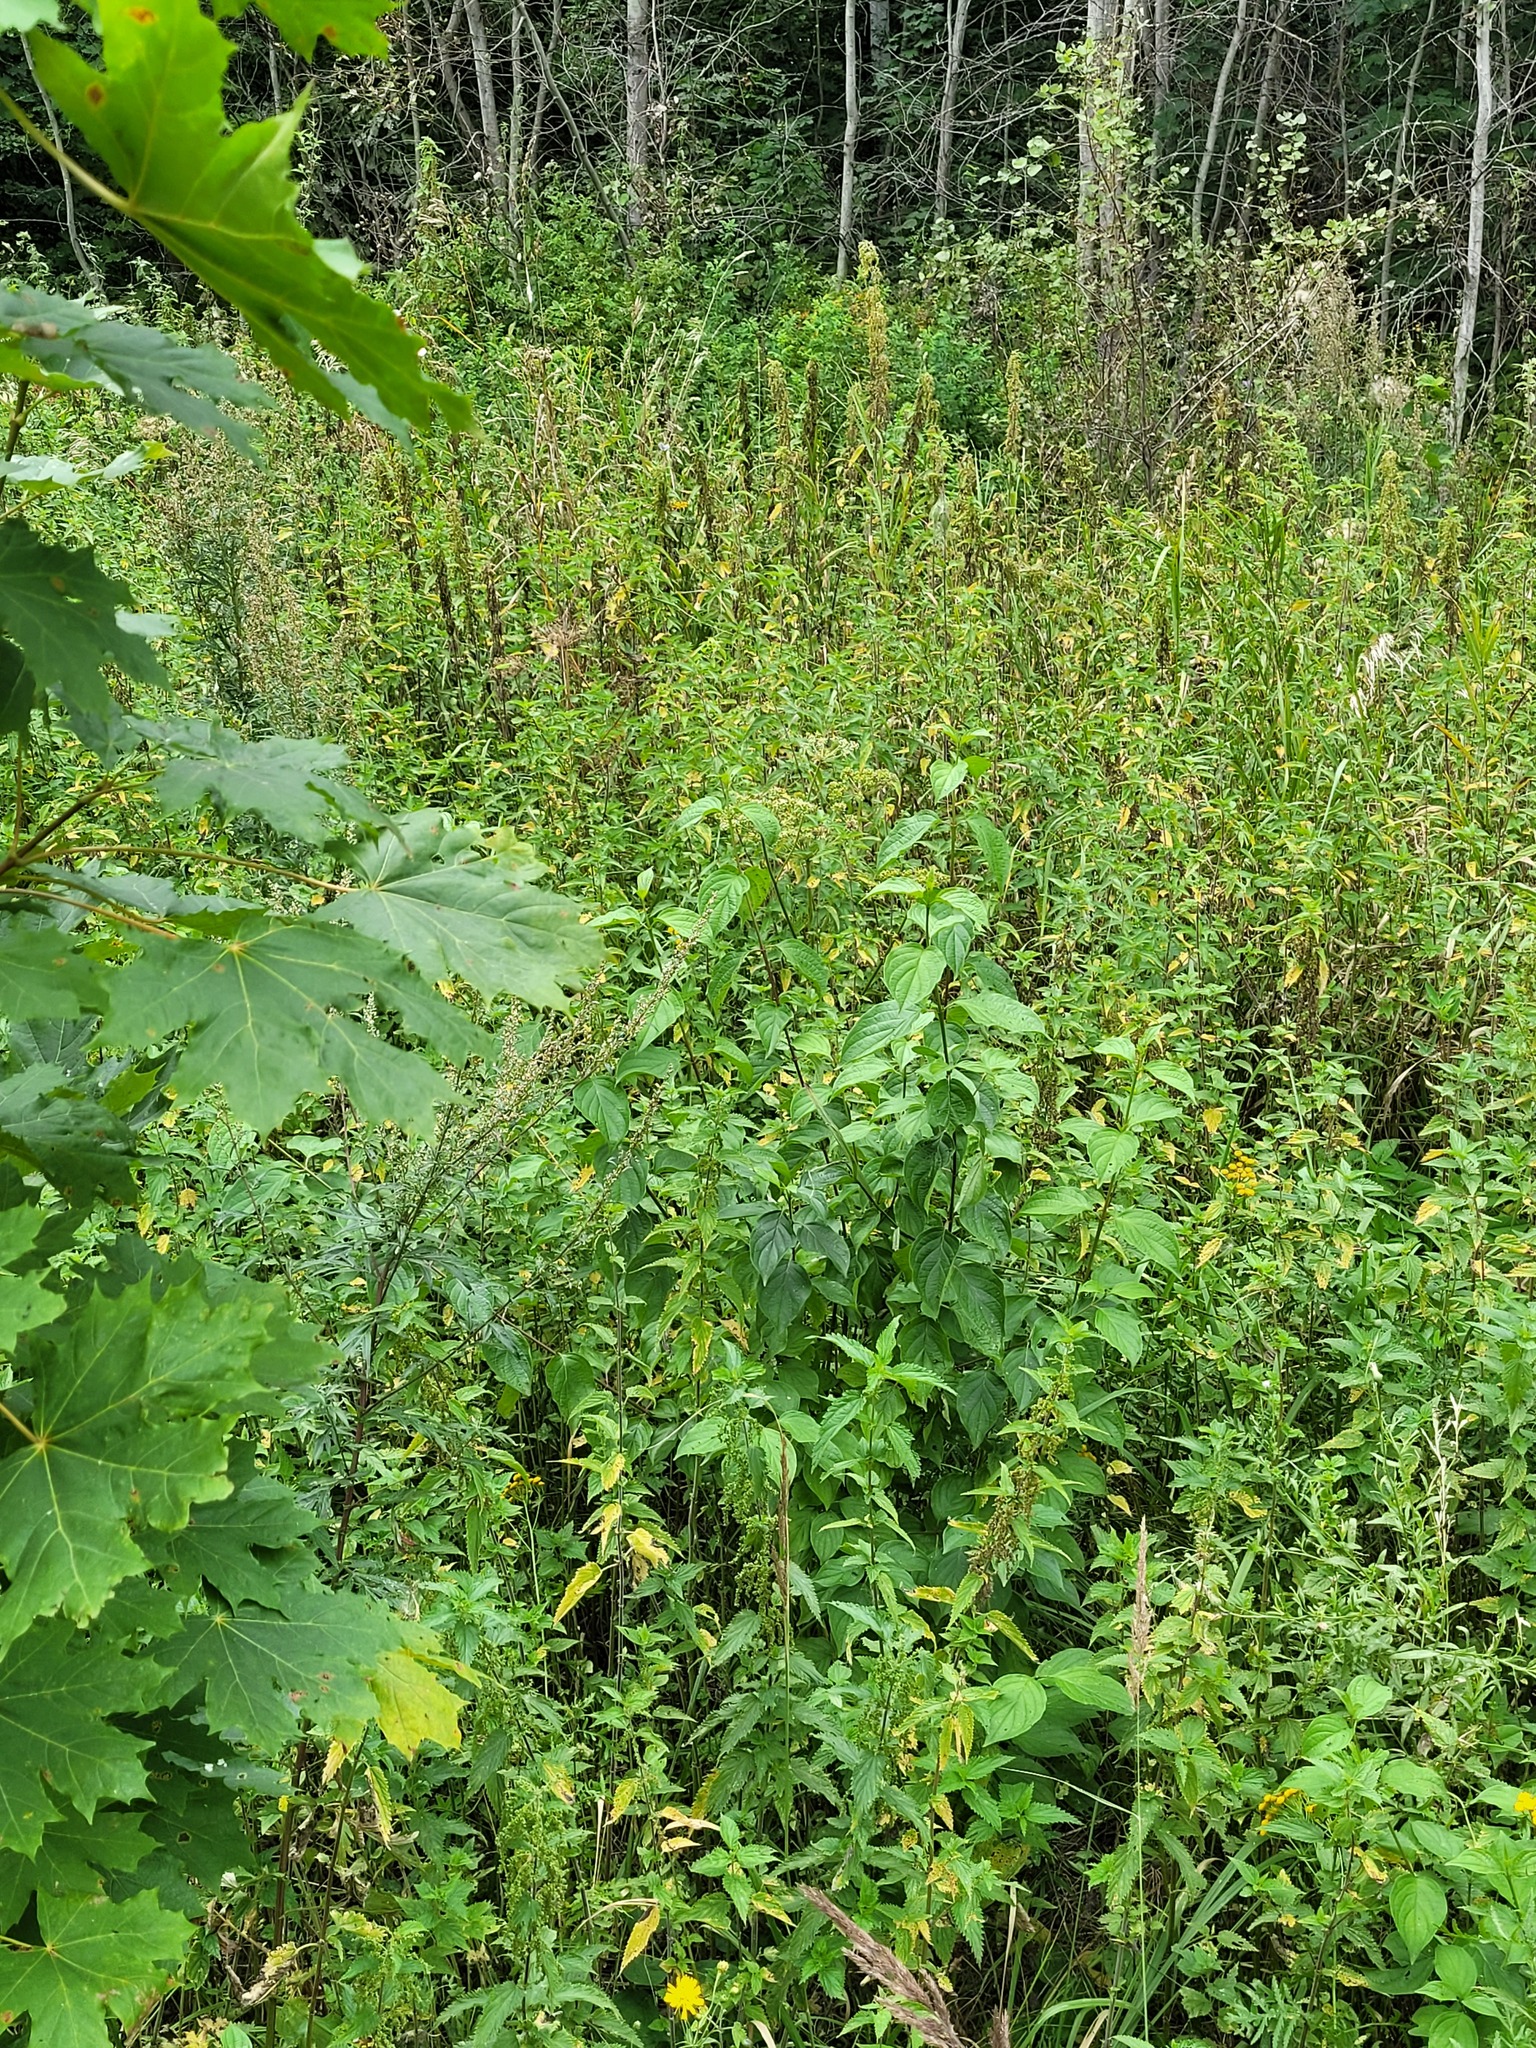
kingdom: Plantae
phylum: Tracheophyta
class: Magnoliopsida
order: Cornales
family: Cornaceae
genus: Cornus
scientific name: Cornus sanguinea
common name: Dogwood
